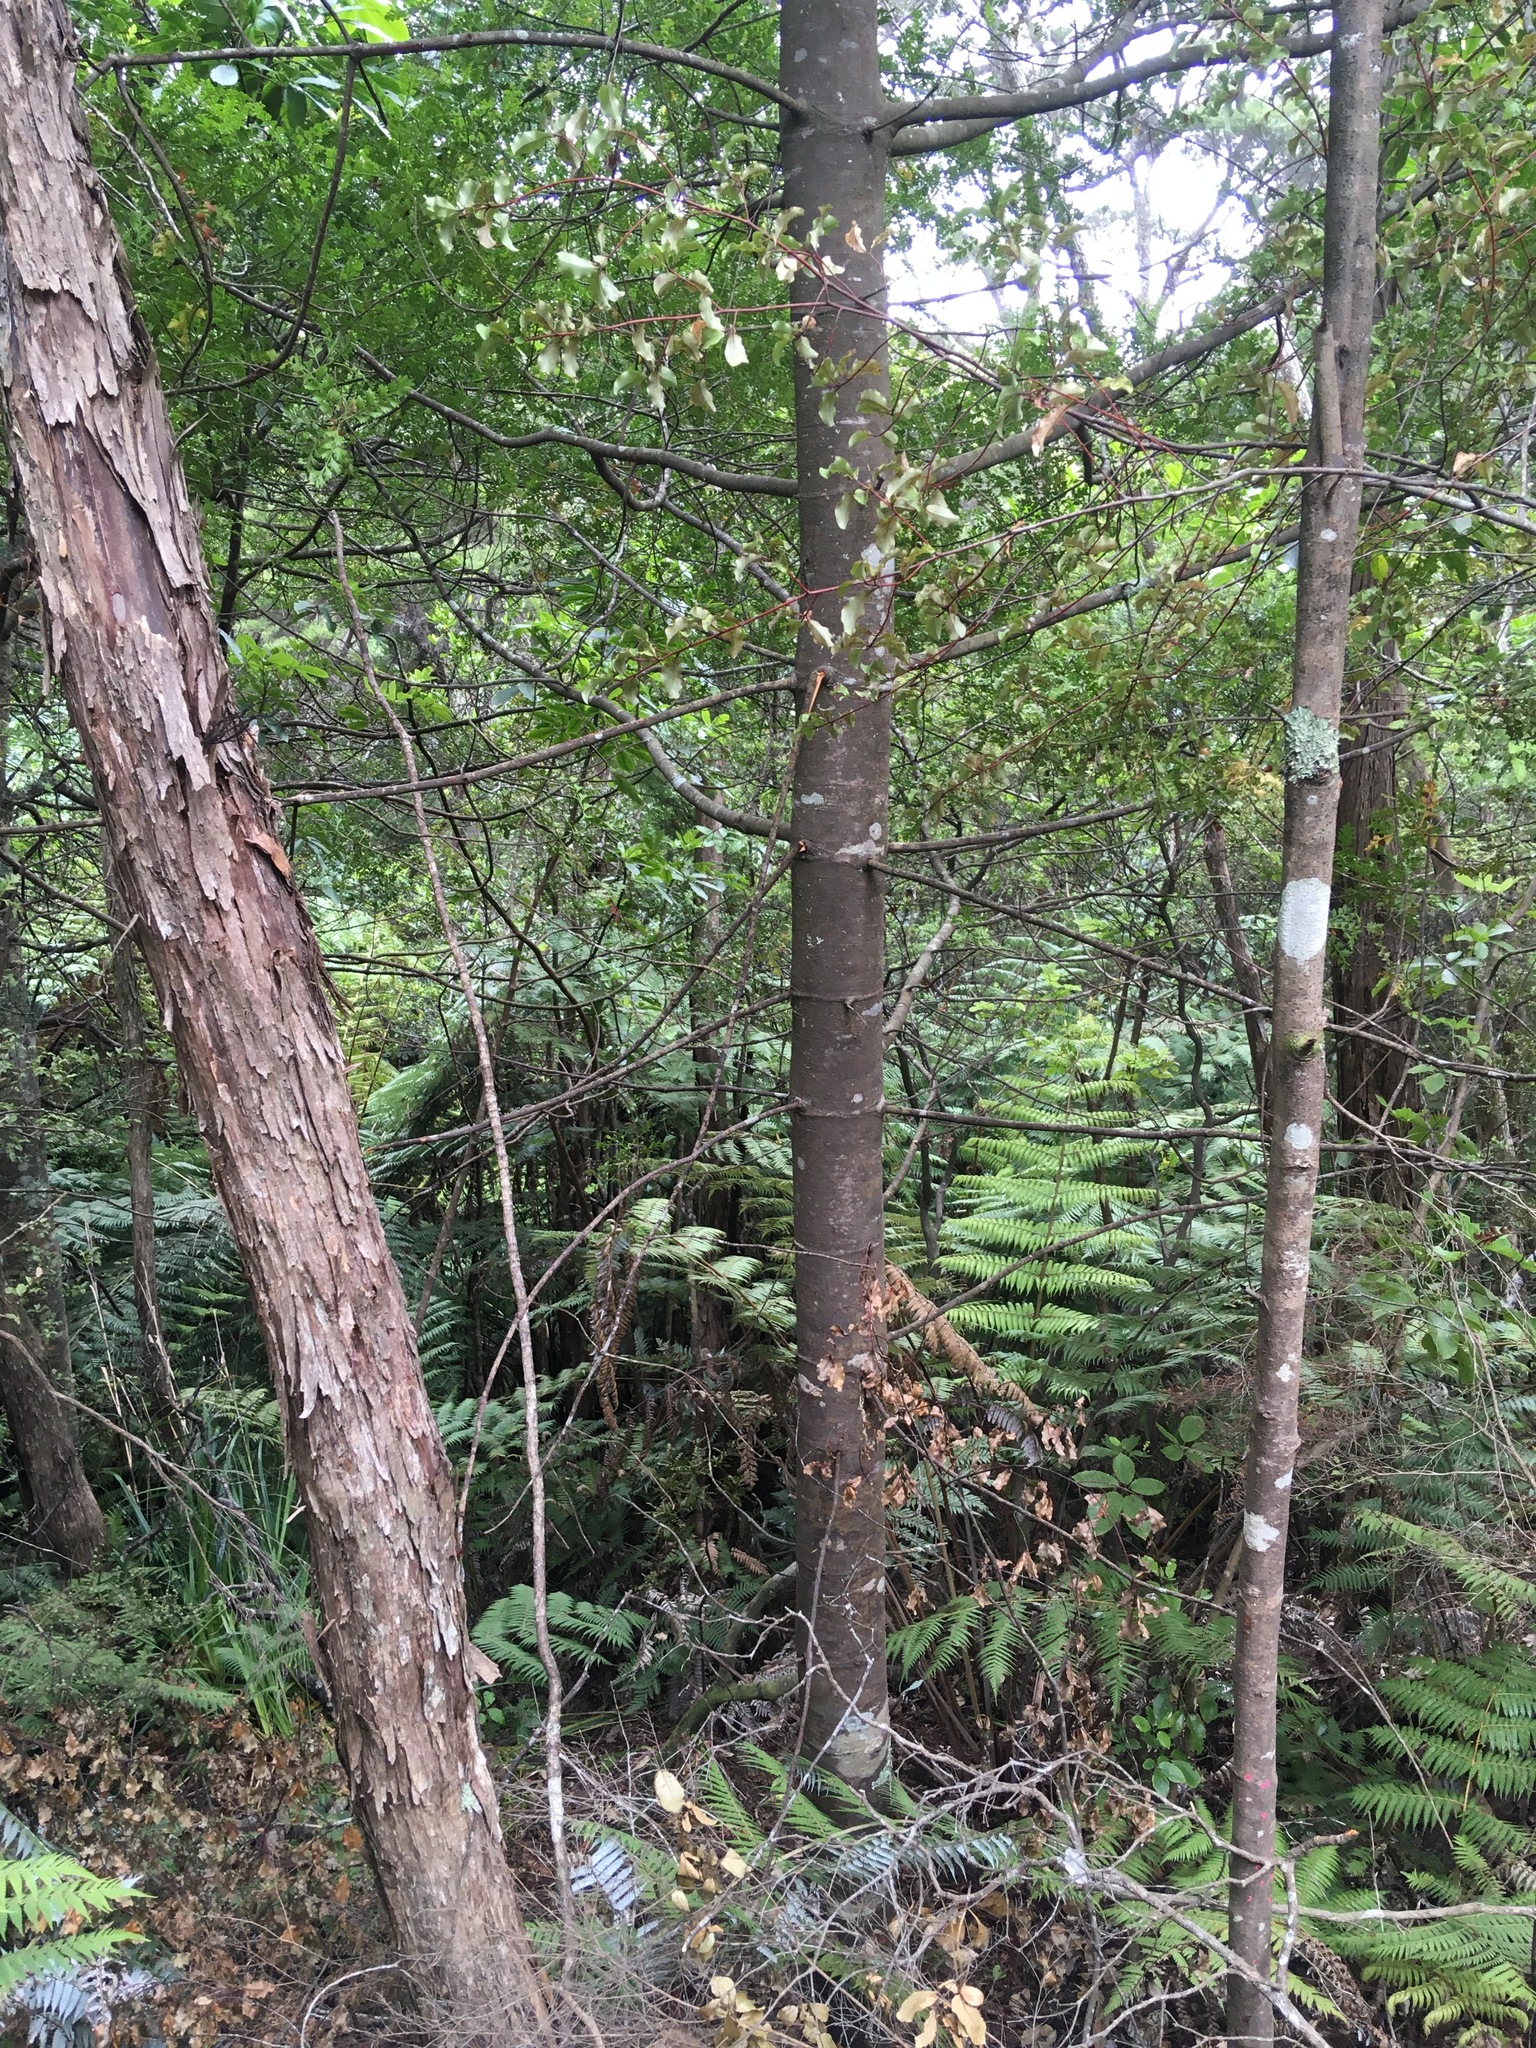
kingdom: Plantae
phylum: Tracheophyta
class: Pinopsida
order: Pinales
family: Phyllocladaceae
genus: Phyllocladus
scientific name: Phyllocladus trichomanoides
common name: Celery pine
